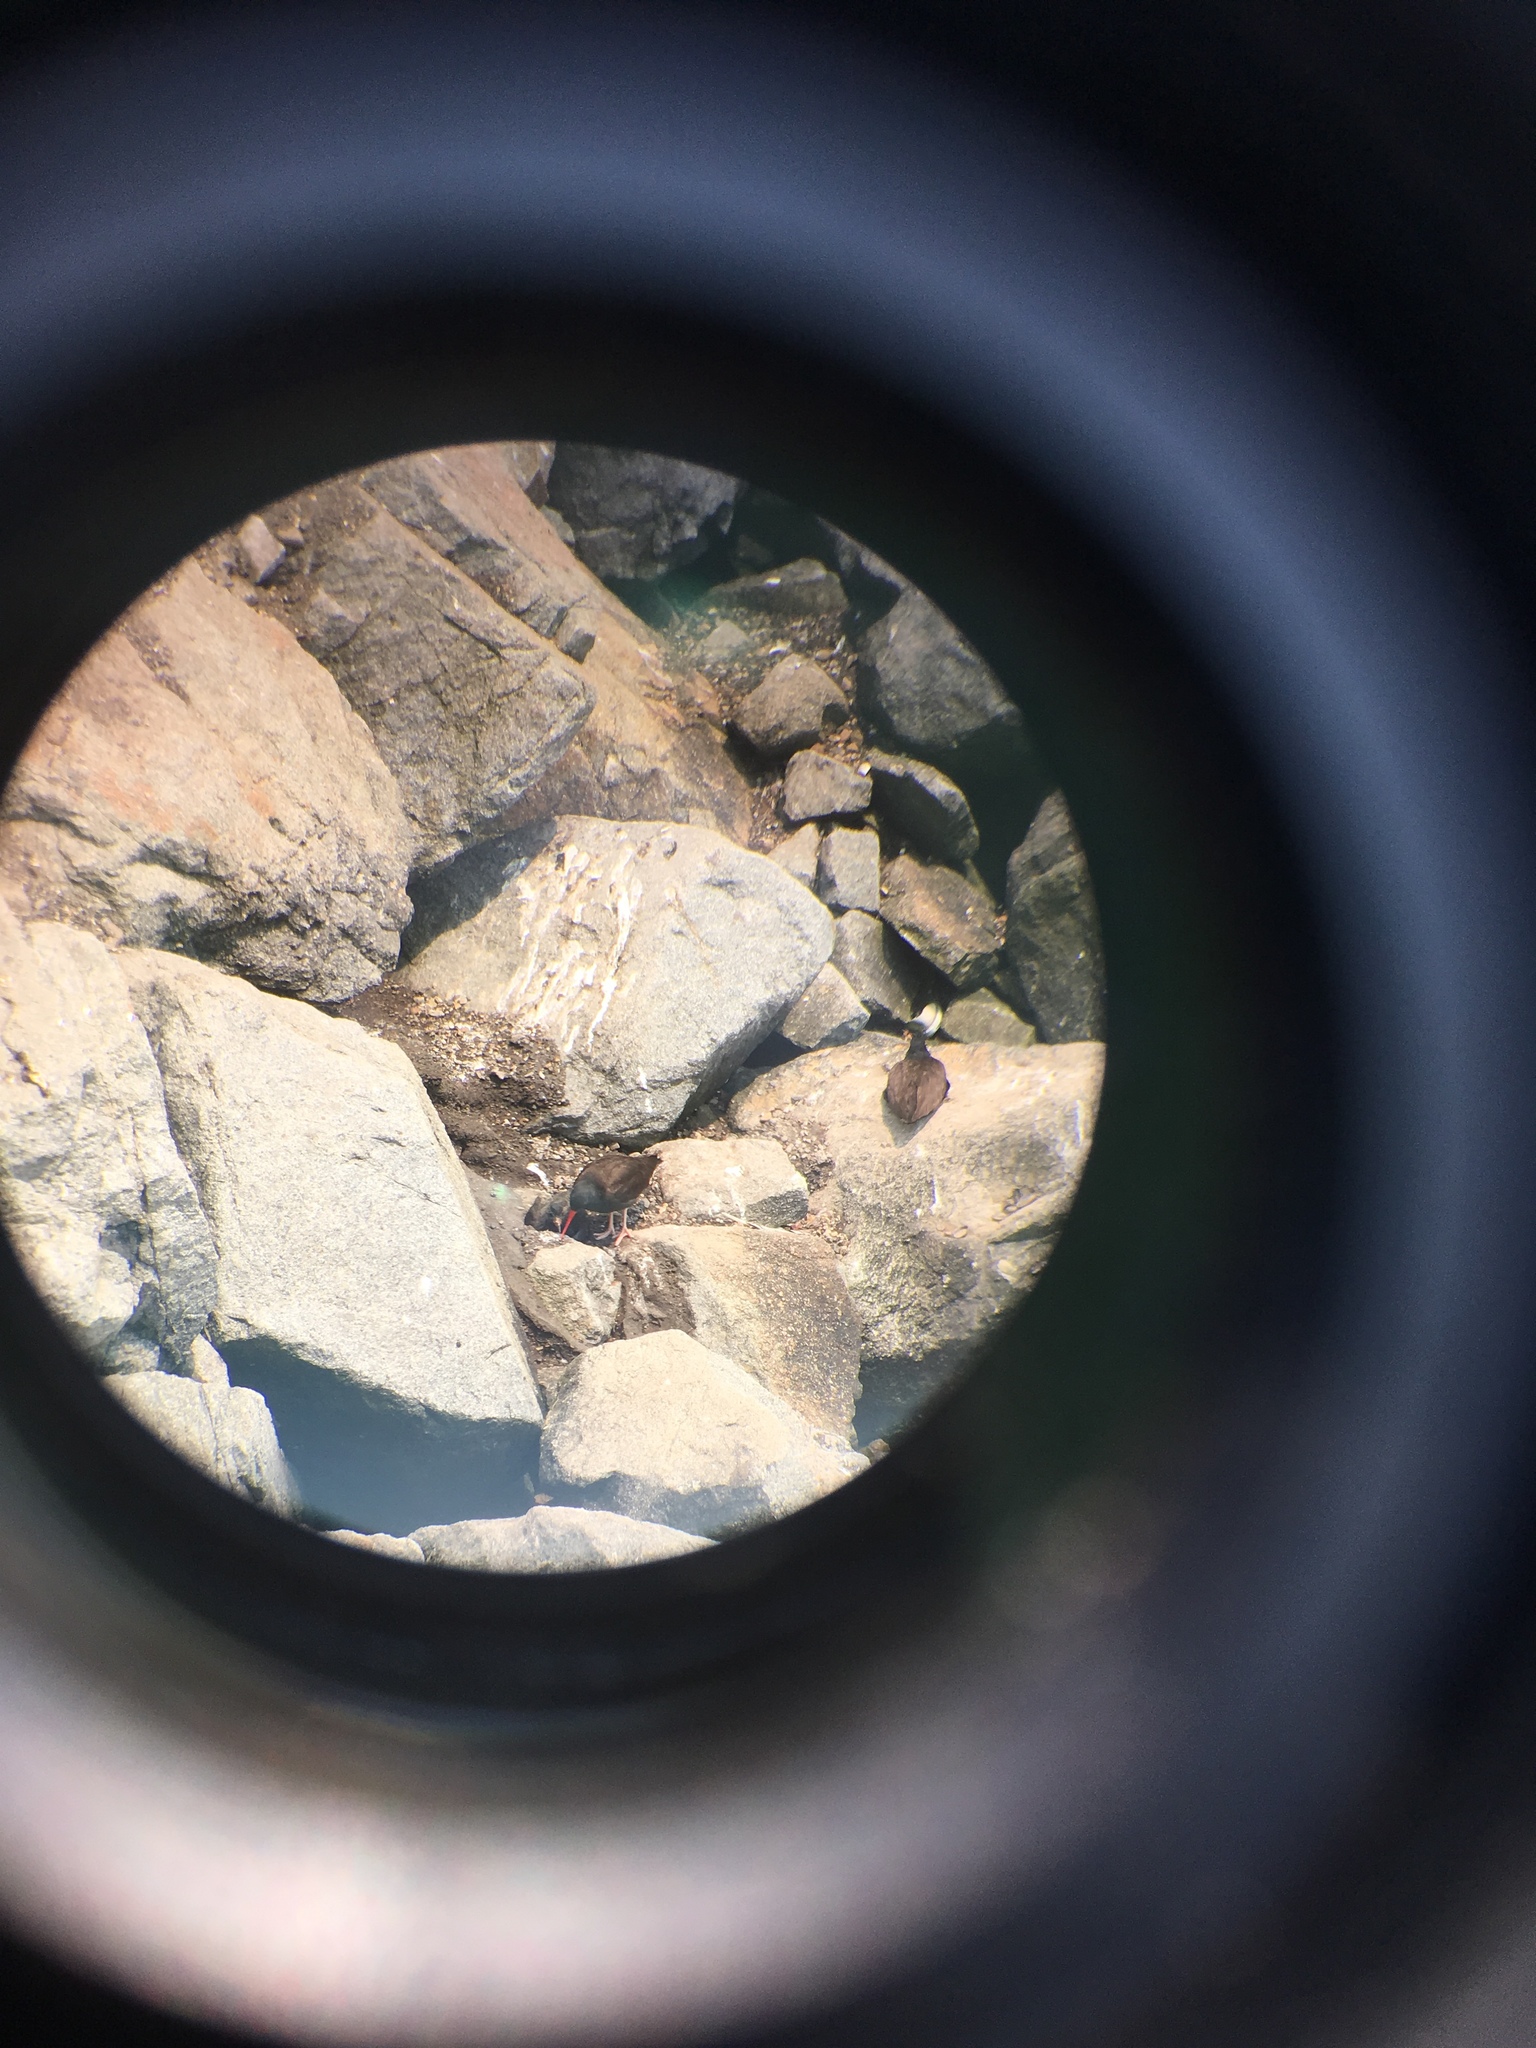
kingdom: Animalia
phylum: Chordata
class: Aves
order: Charadriiformes
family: Haematopodidae
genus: Haematopus
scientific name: Haematopus bachmani
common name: Black oystercatcher
